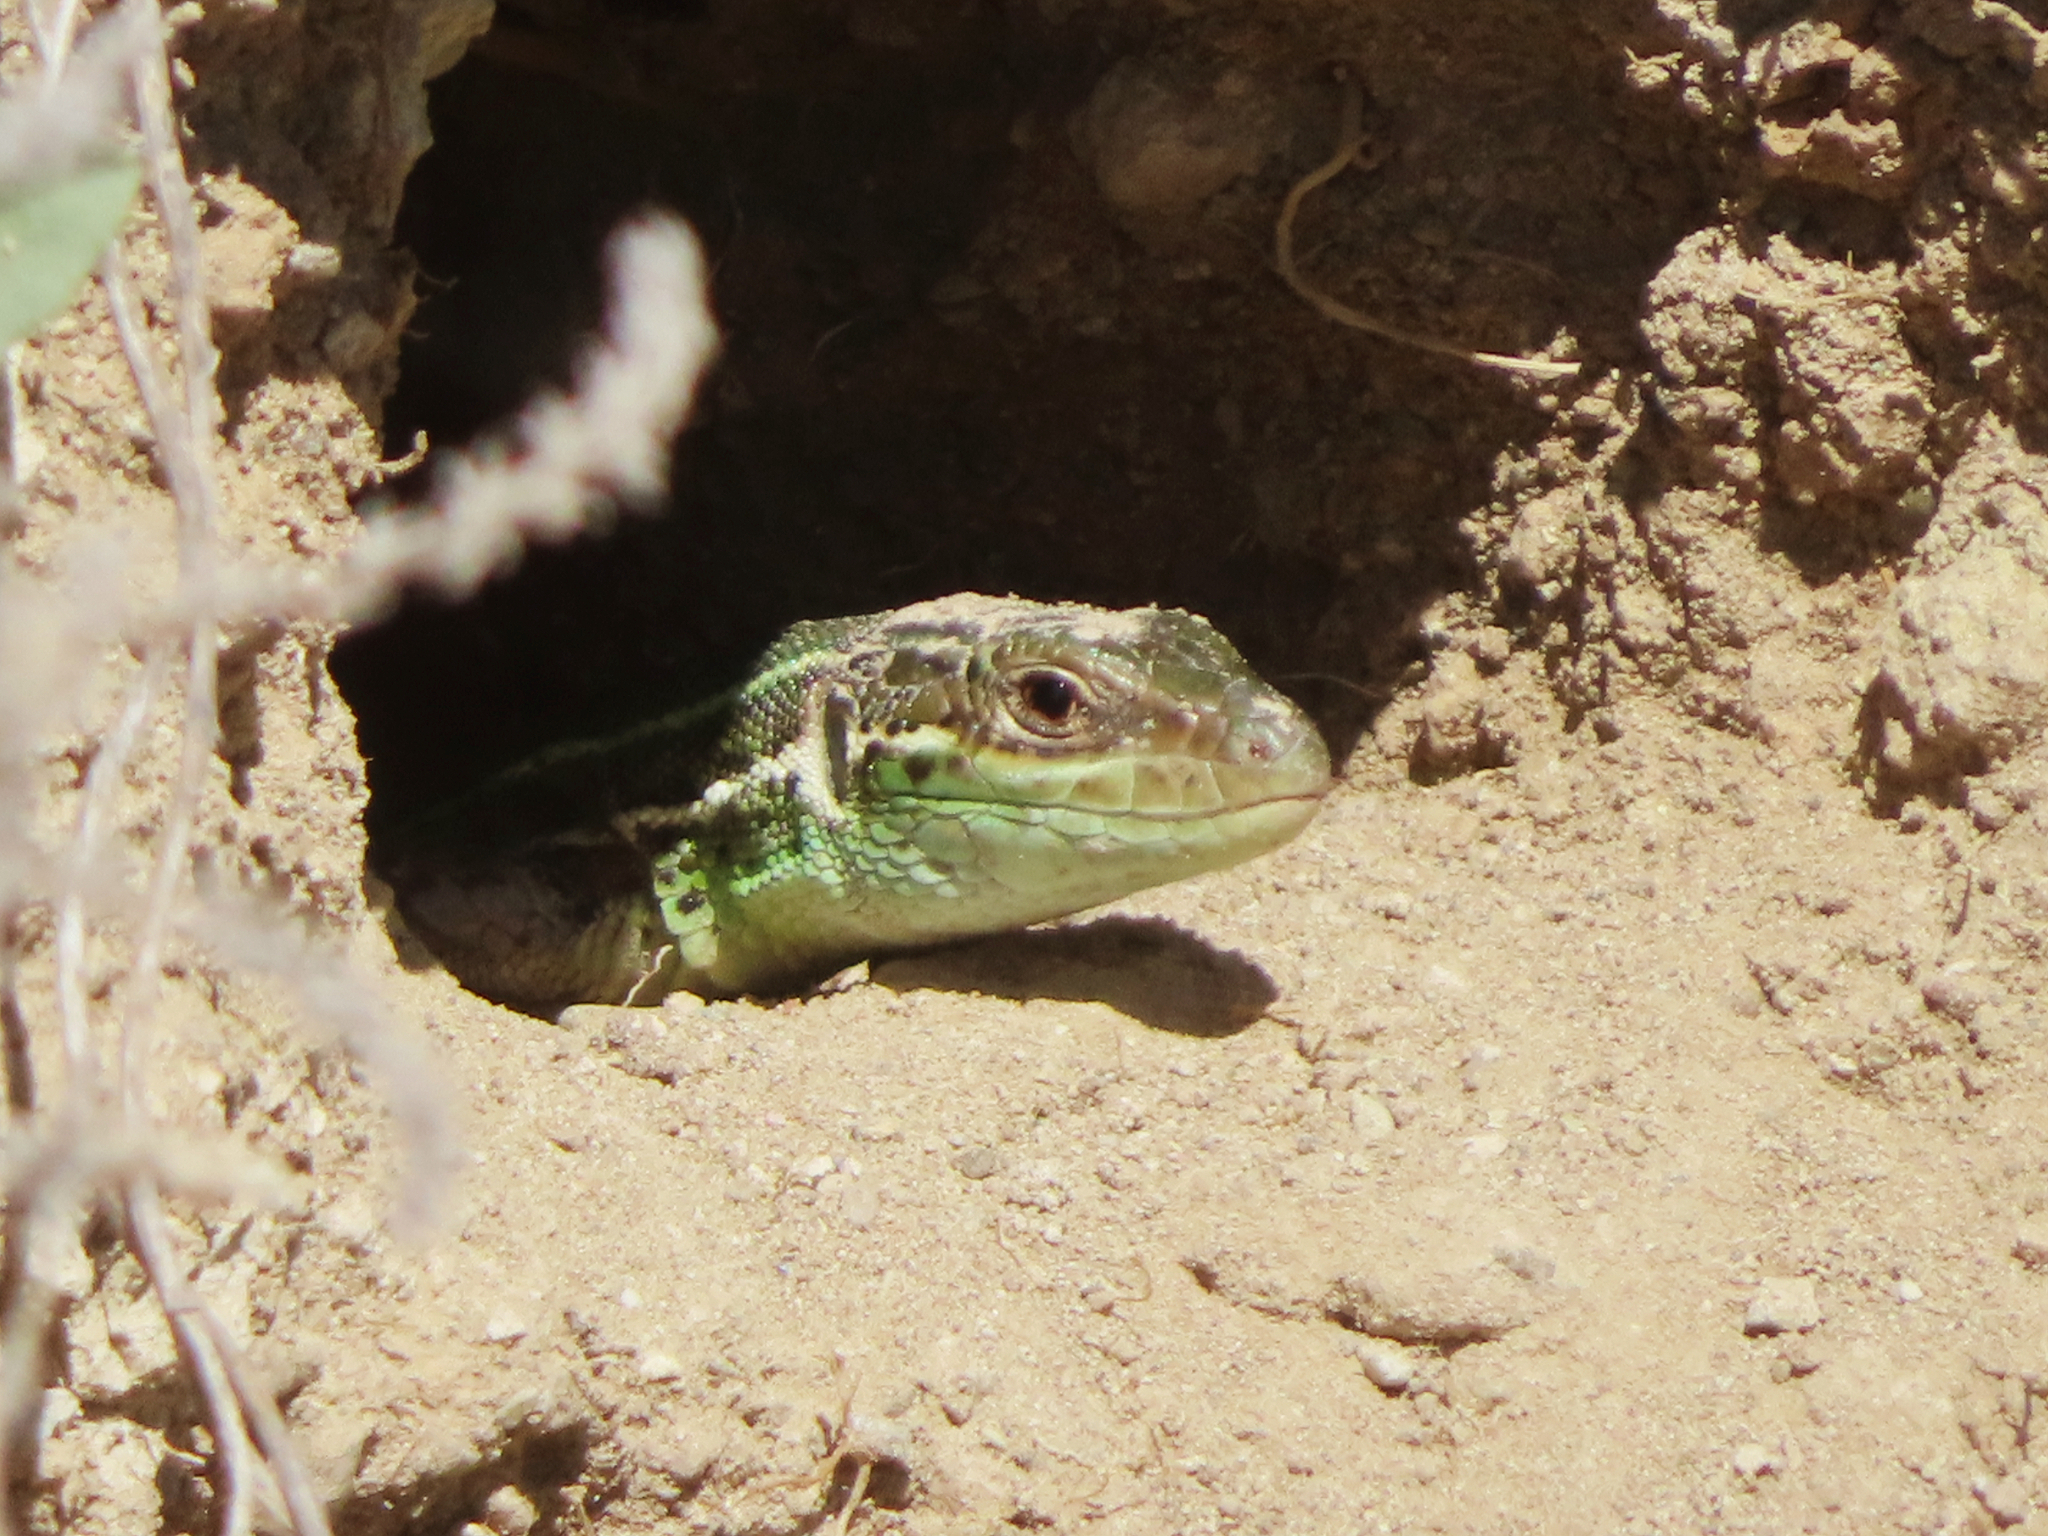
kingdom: Animalia
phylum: Chordata
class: Squamata
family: Lacertidae
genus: Lacerta
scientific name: Lacerta strigata
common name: Caspian green lizard
